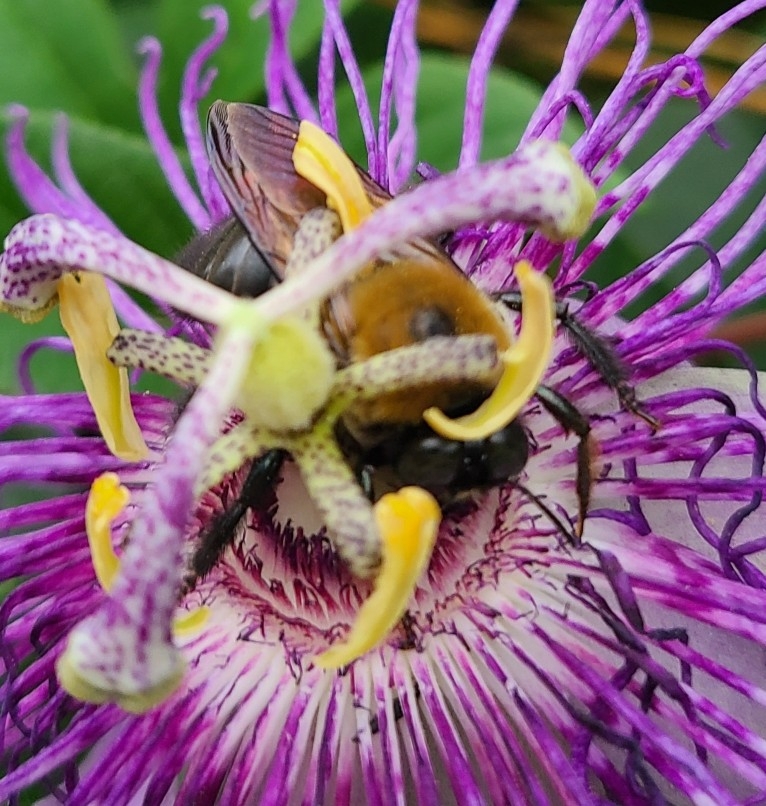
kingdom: Animalia
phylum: Arthropoda
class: Insecta
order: Hymenoptera
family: Apidae
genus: Xylocopa
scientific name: Xylocopa virginica
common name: Carpenter bee
